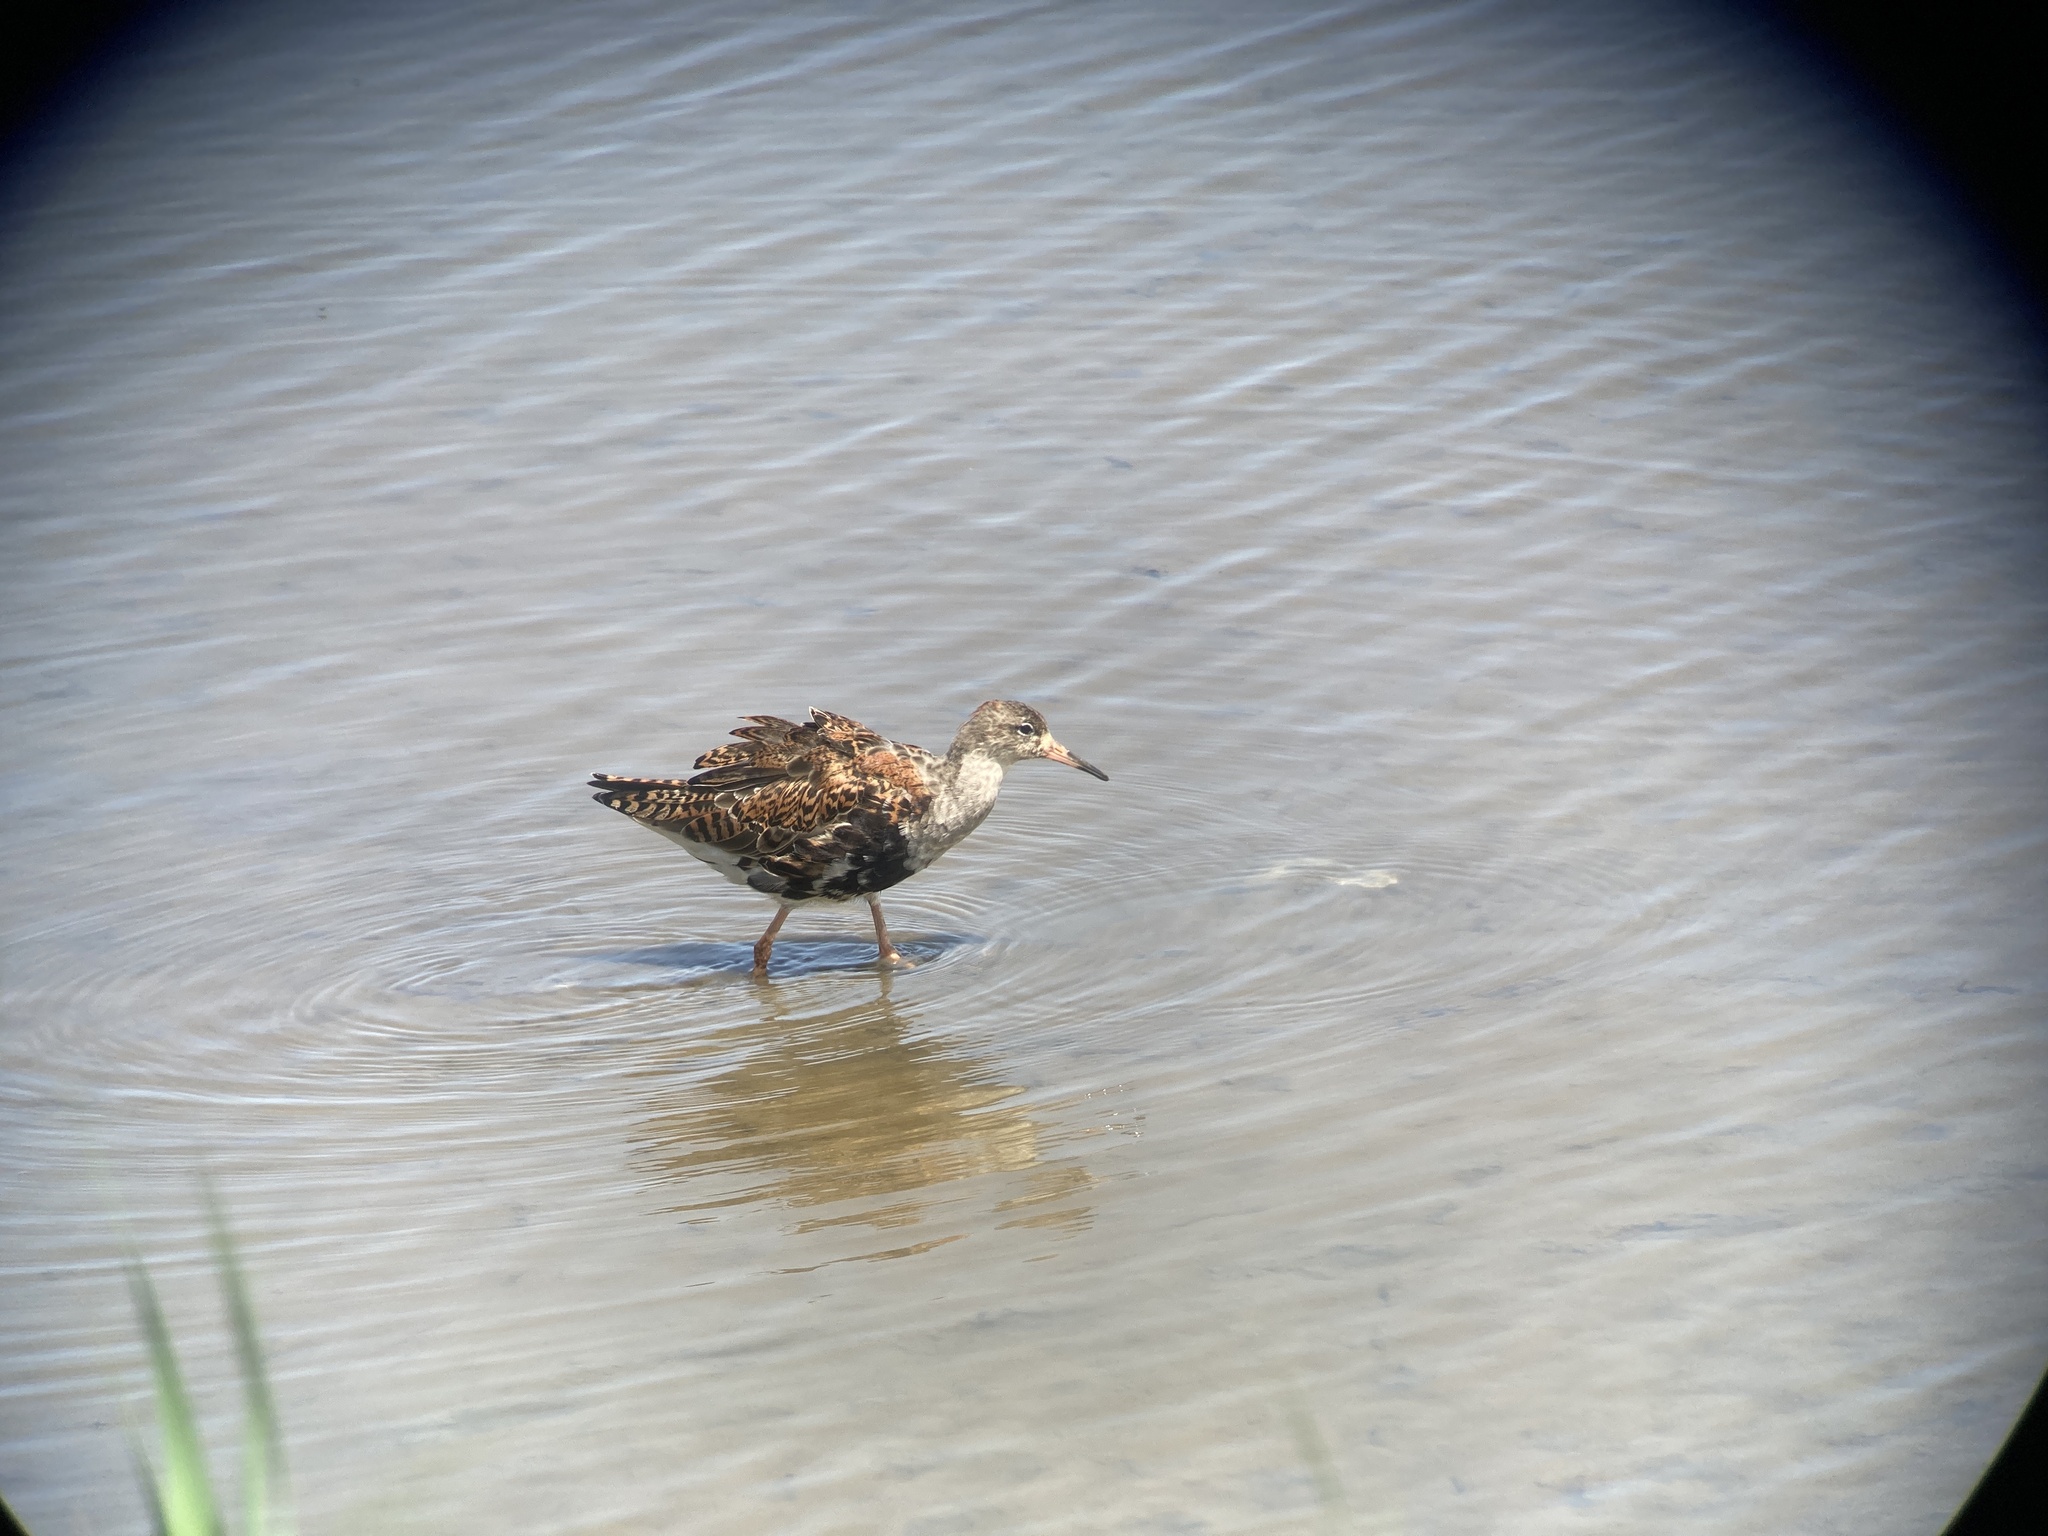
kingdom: Animalia
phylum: Chordata
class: Aves
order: Charadriiformes
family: Scolopacidae
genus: Calidris
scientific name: Calidris pugnax
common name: Ruff
